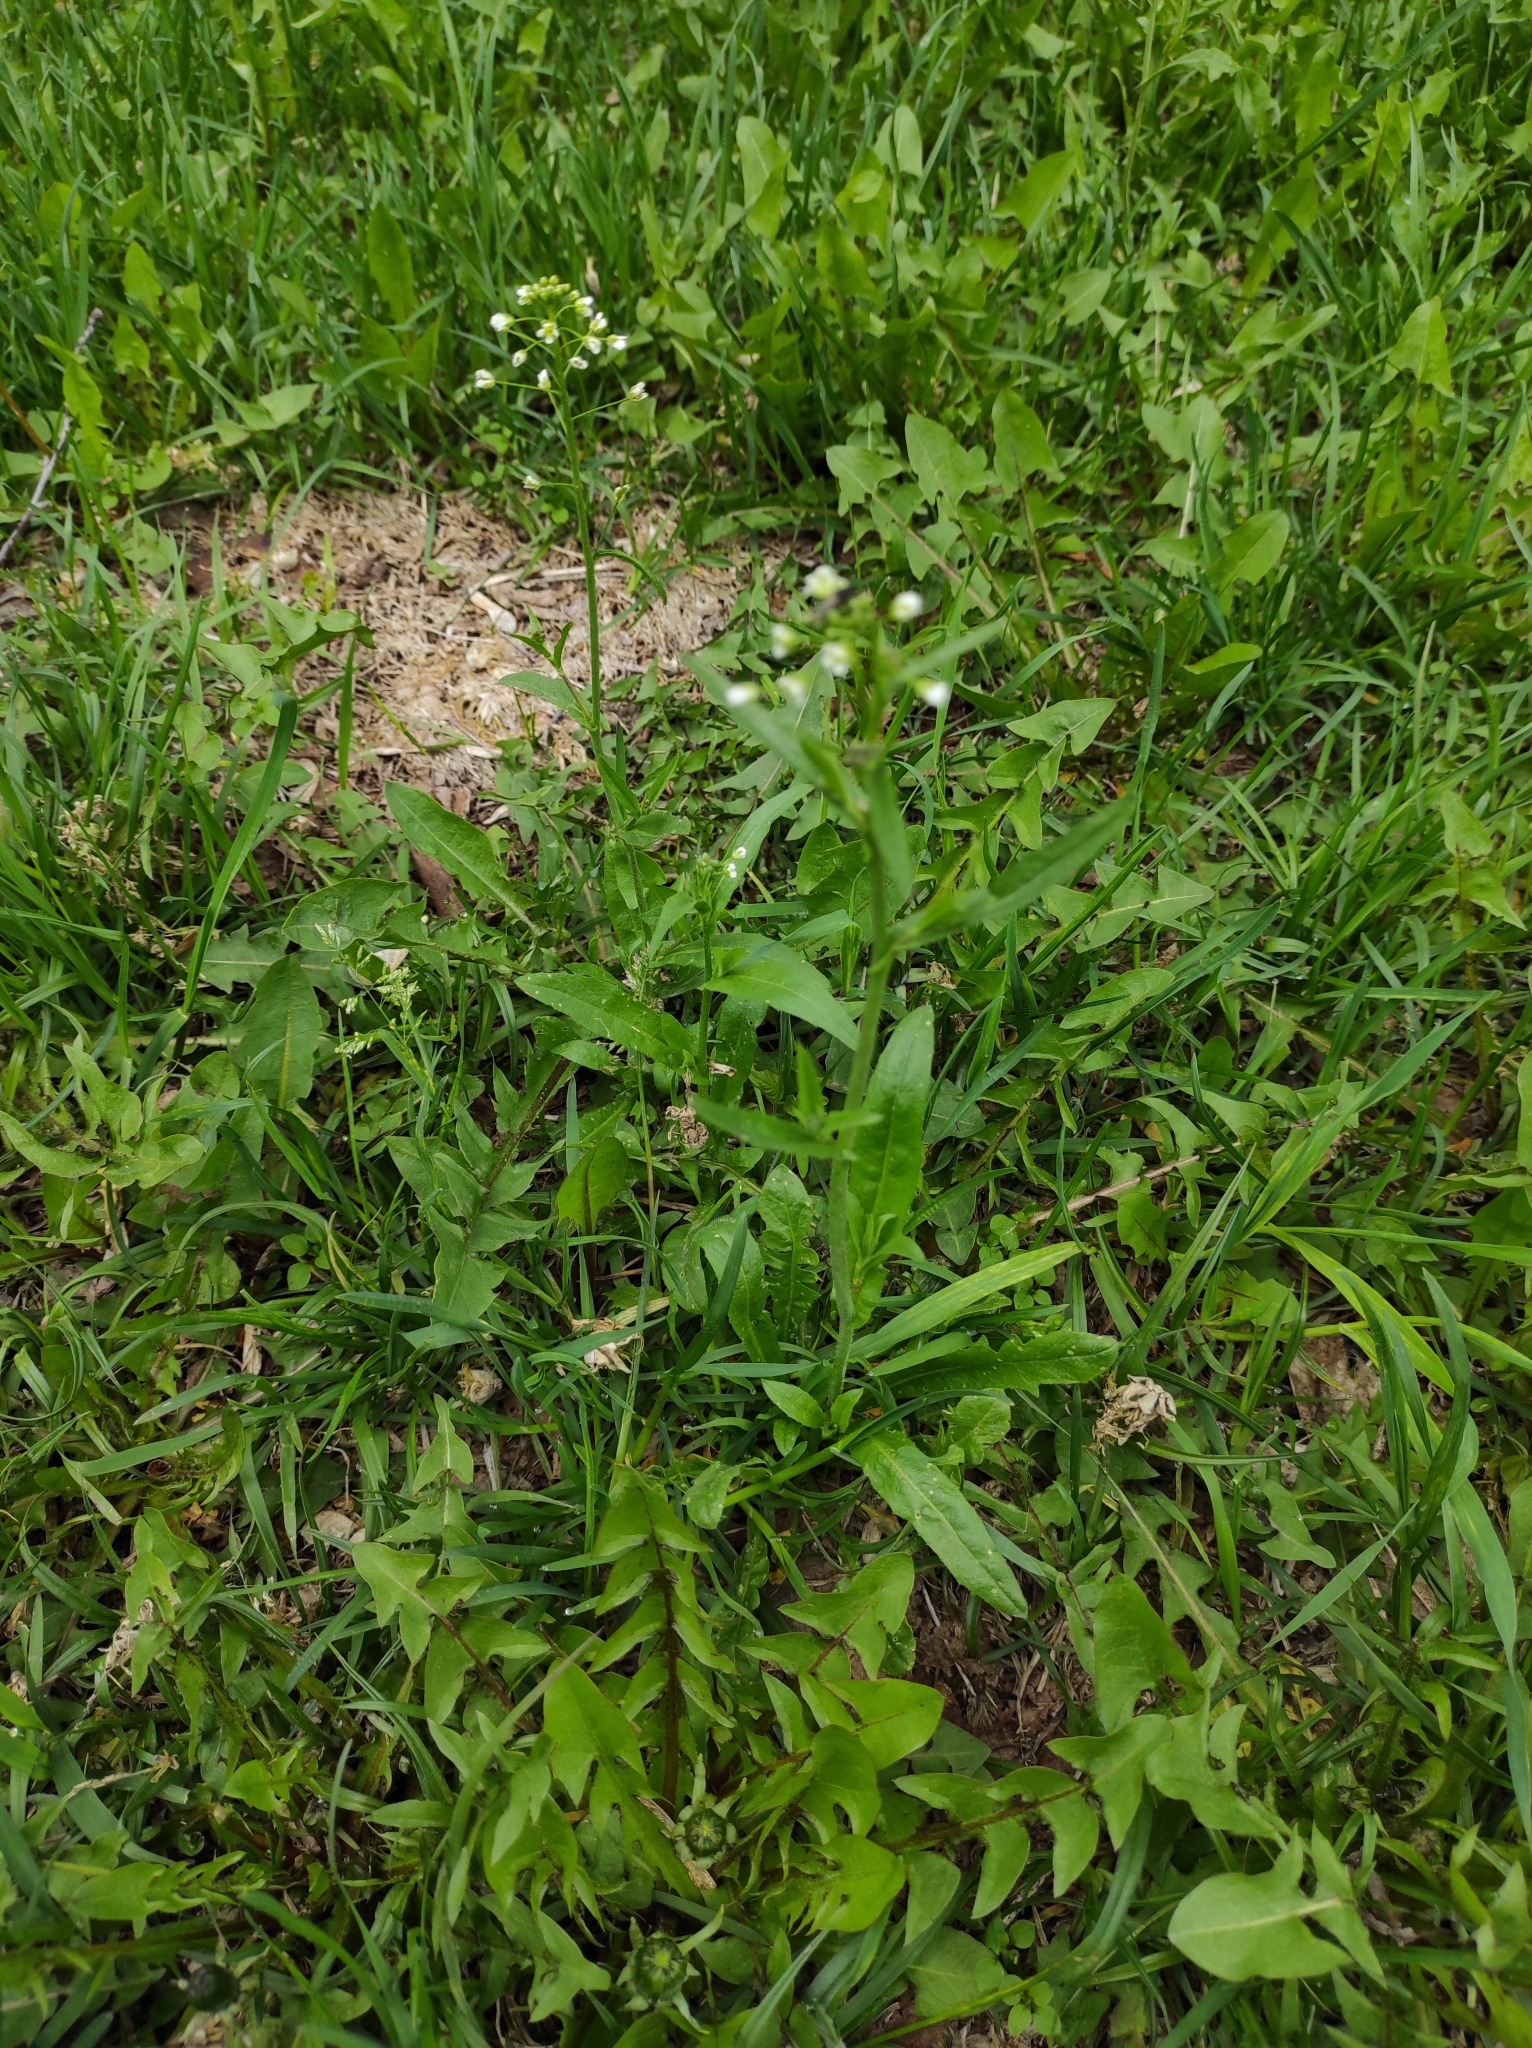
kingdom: Plantae
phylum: Tracheophyta
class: Magnoliopsida
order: Brassicales
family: Brassicaceae
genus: Capsella
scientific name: Capsella bursa-pastoris
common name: Shepherd's purse
